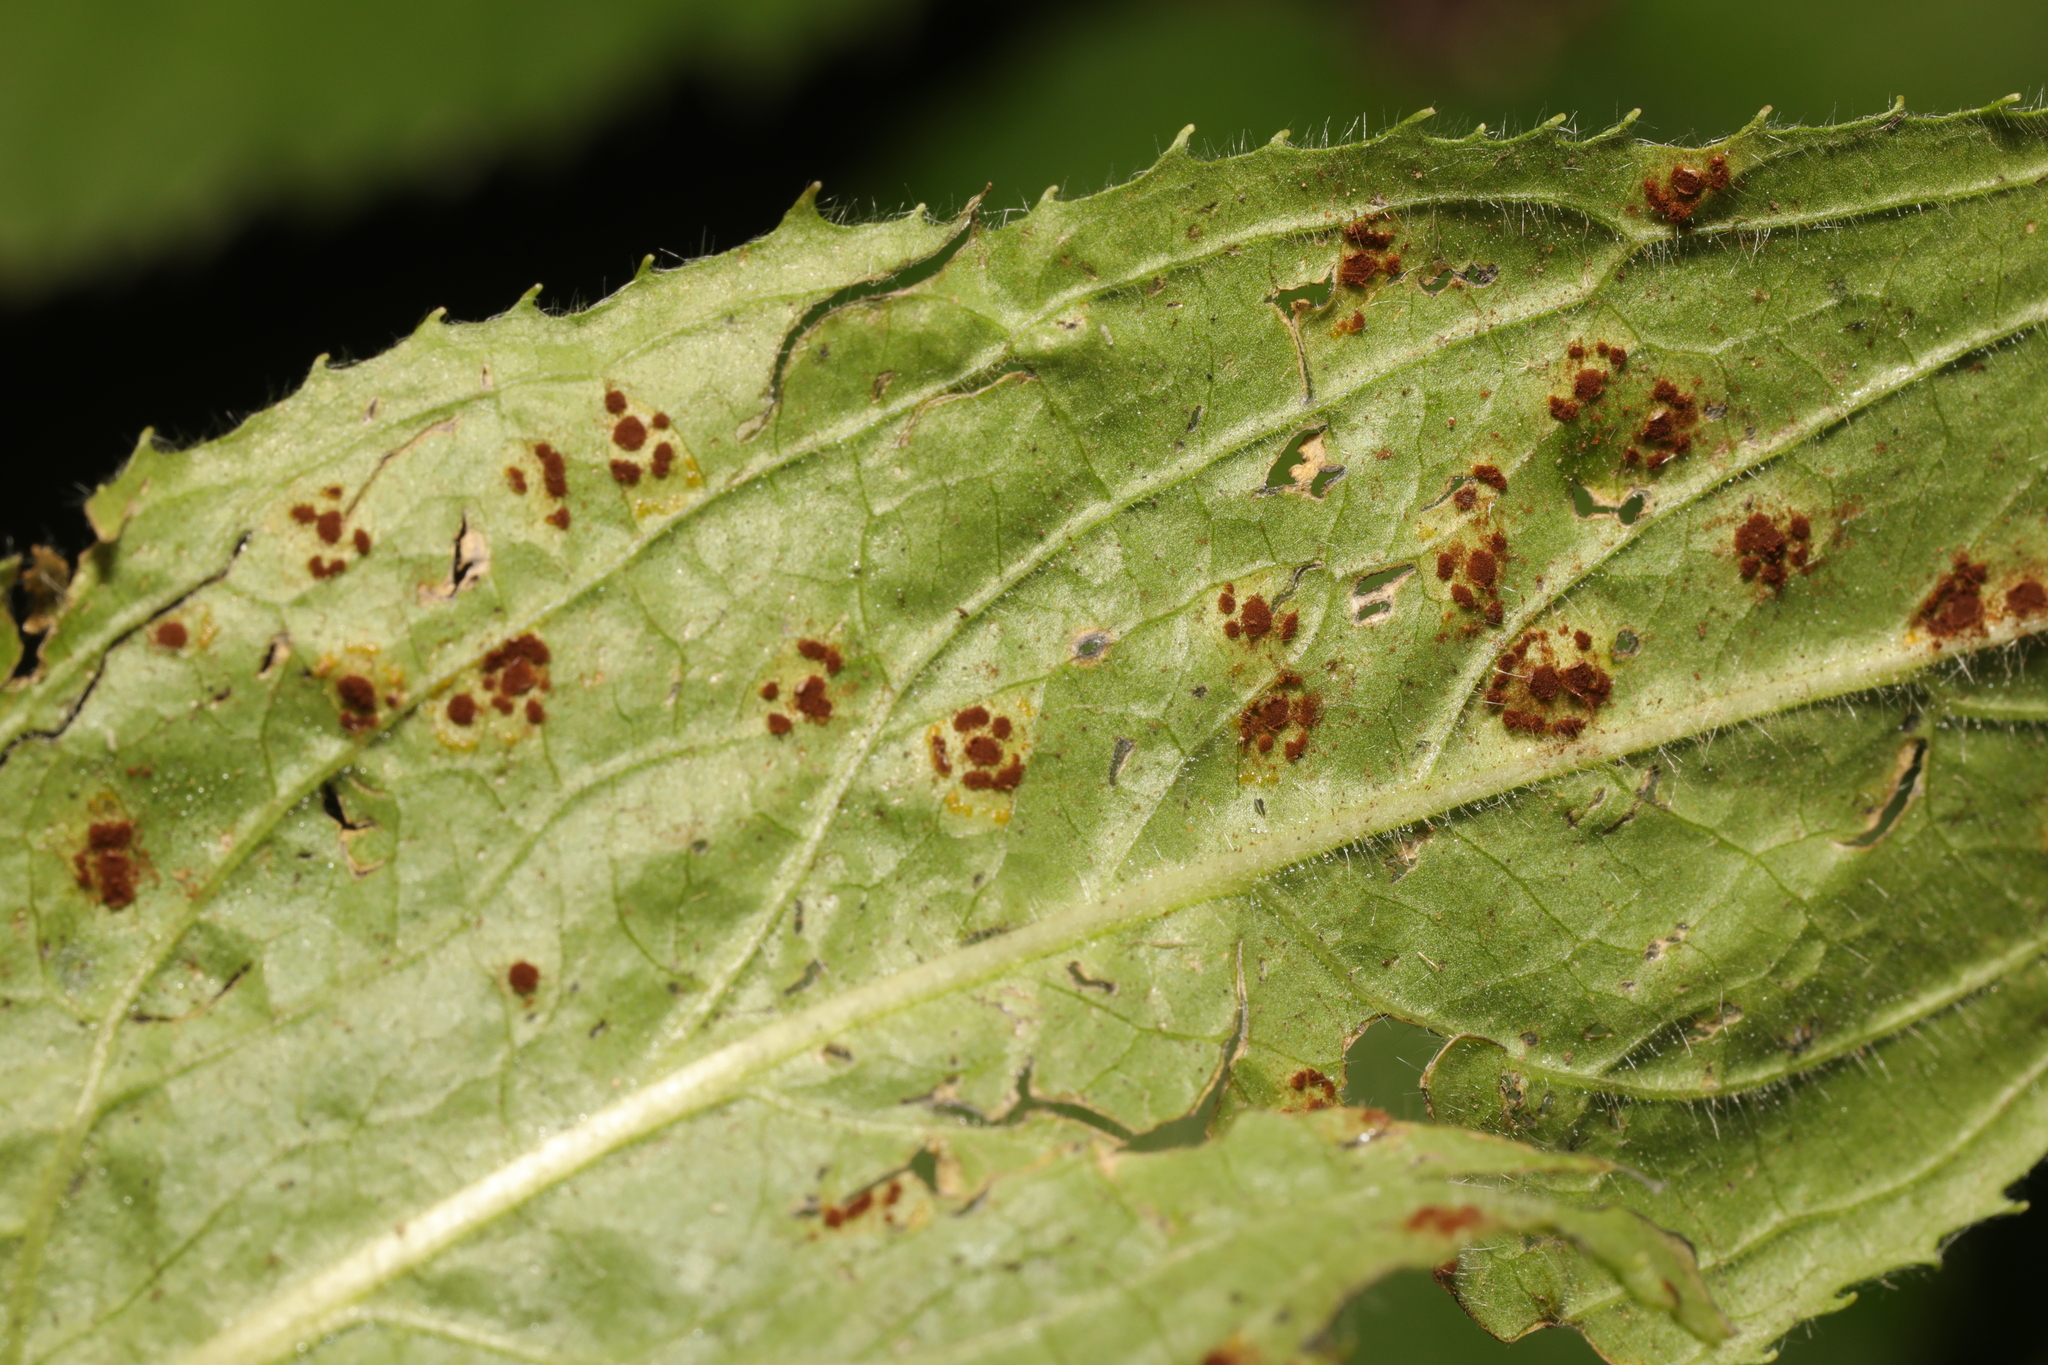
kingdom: Fungi
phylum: Basidiomycota
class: Pucciniomycetes
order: Pucciniales
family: Pucciniaceae
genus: Puccinia
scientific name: Puccinia pulverulenta
